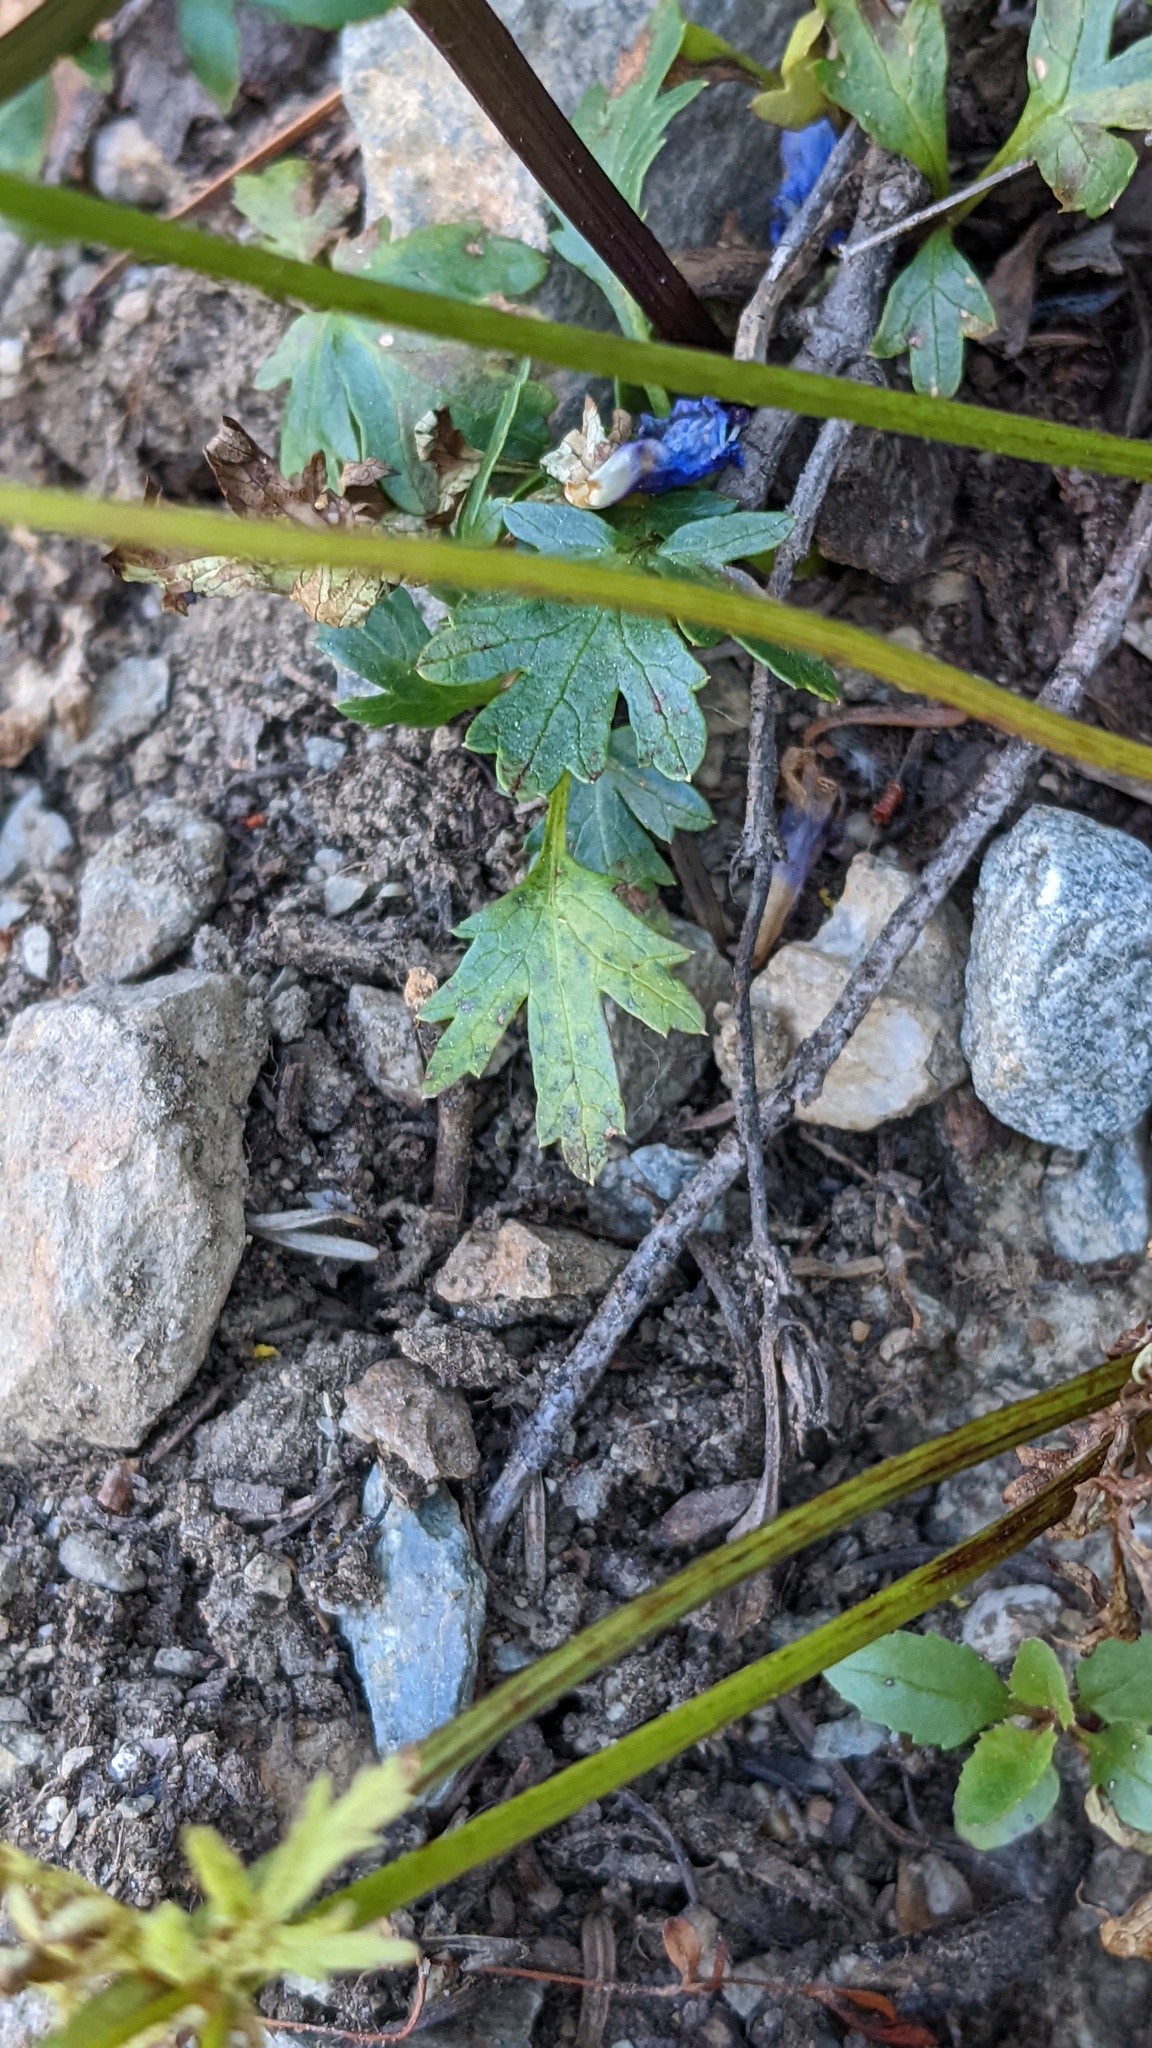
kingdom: Plantae
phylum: Tracheophyta
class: Magnoliopsida
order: Apiales
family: Apiaceae
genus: Sanicula
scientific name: Sanicula graveolens
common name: Sierra sanicle
